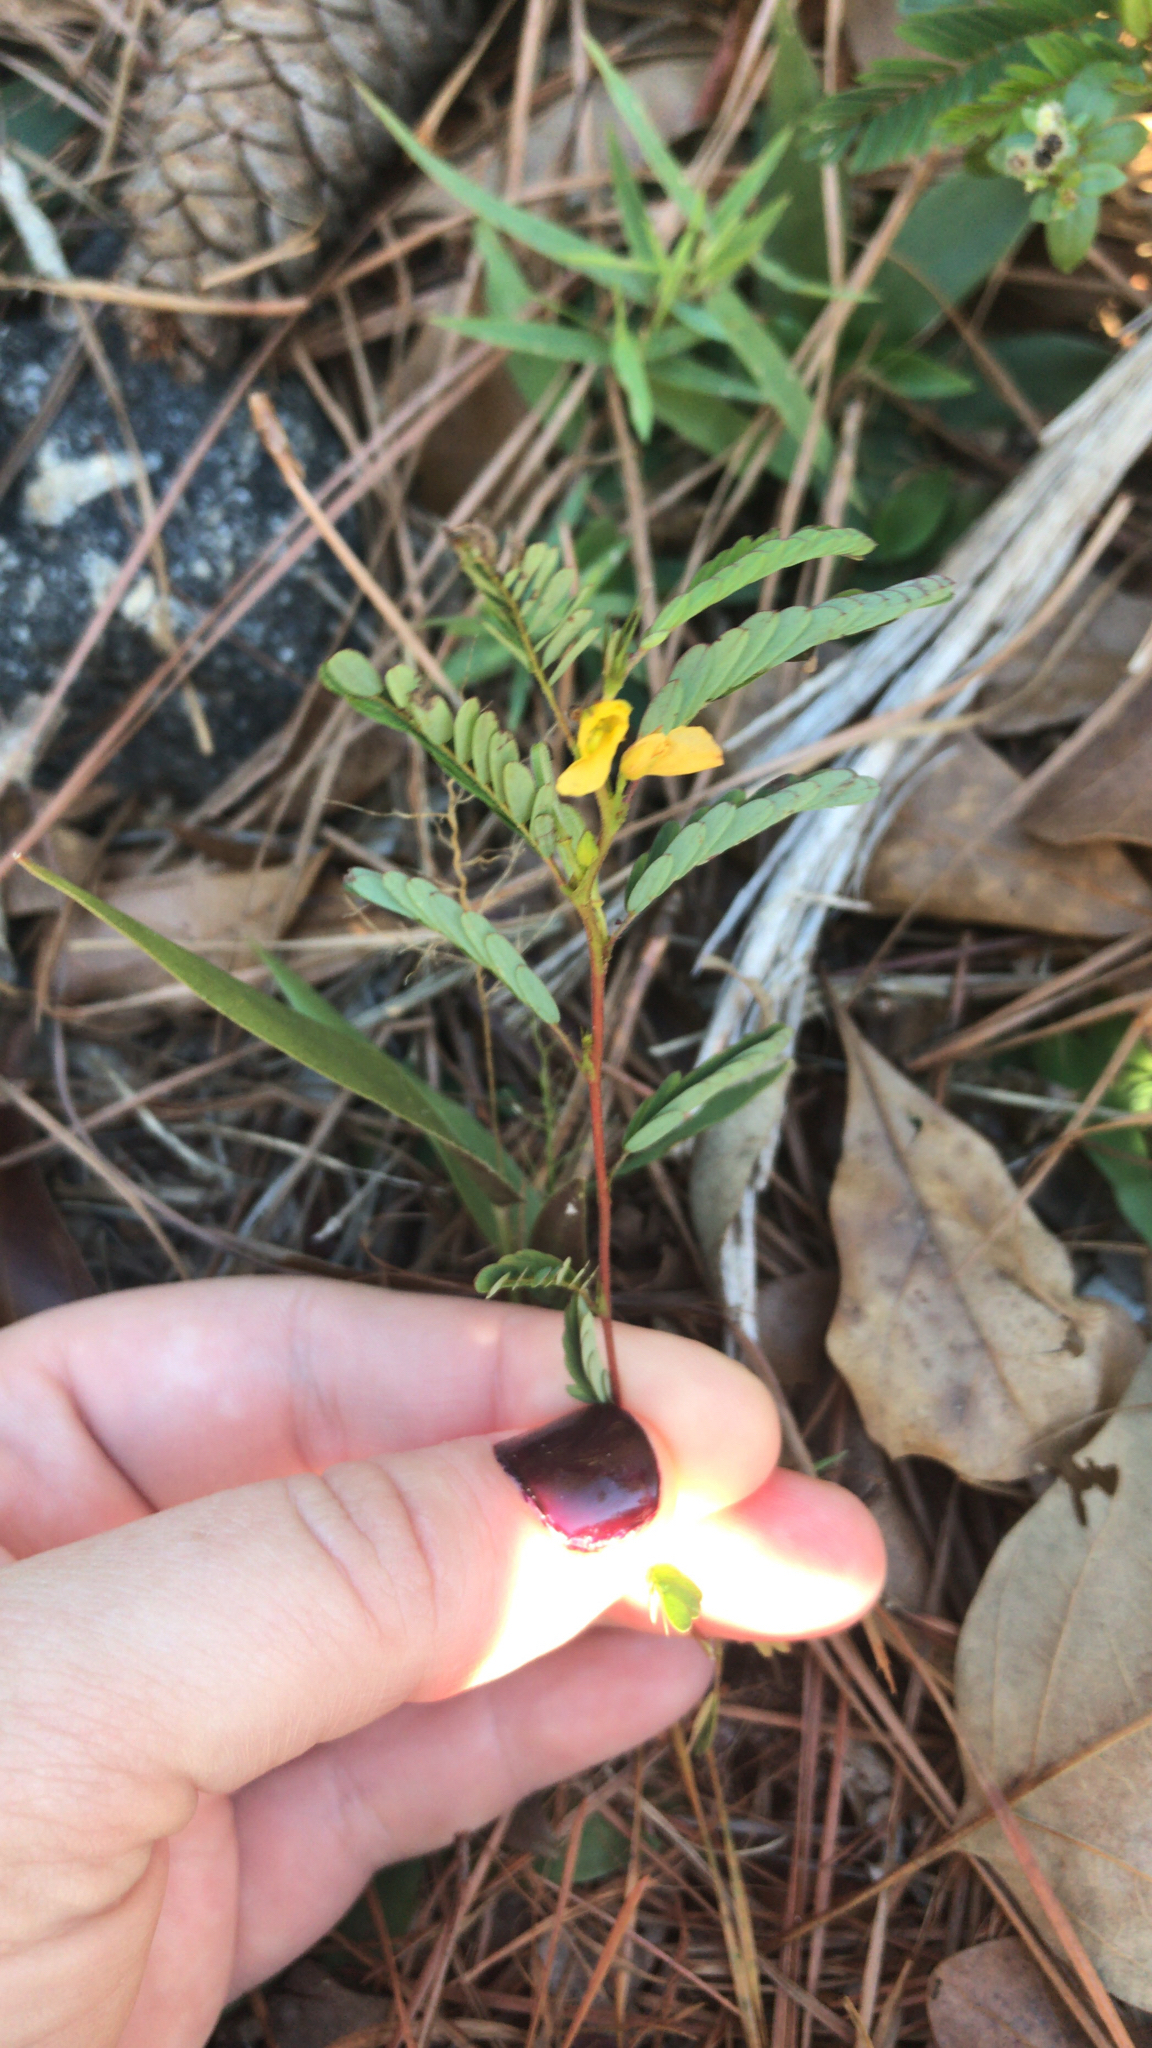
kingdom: Plantae
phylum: Tracheophyta
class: Magnoliopsida
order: Fabales
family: Fabaceae
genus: Chamaecrista
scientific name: Chamaecrista nictitans
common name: Sensitive cassia
